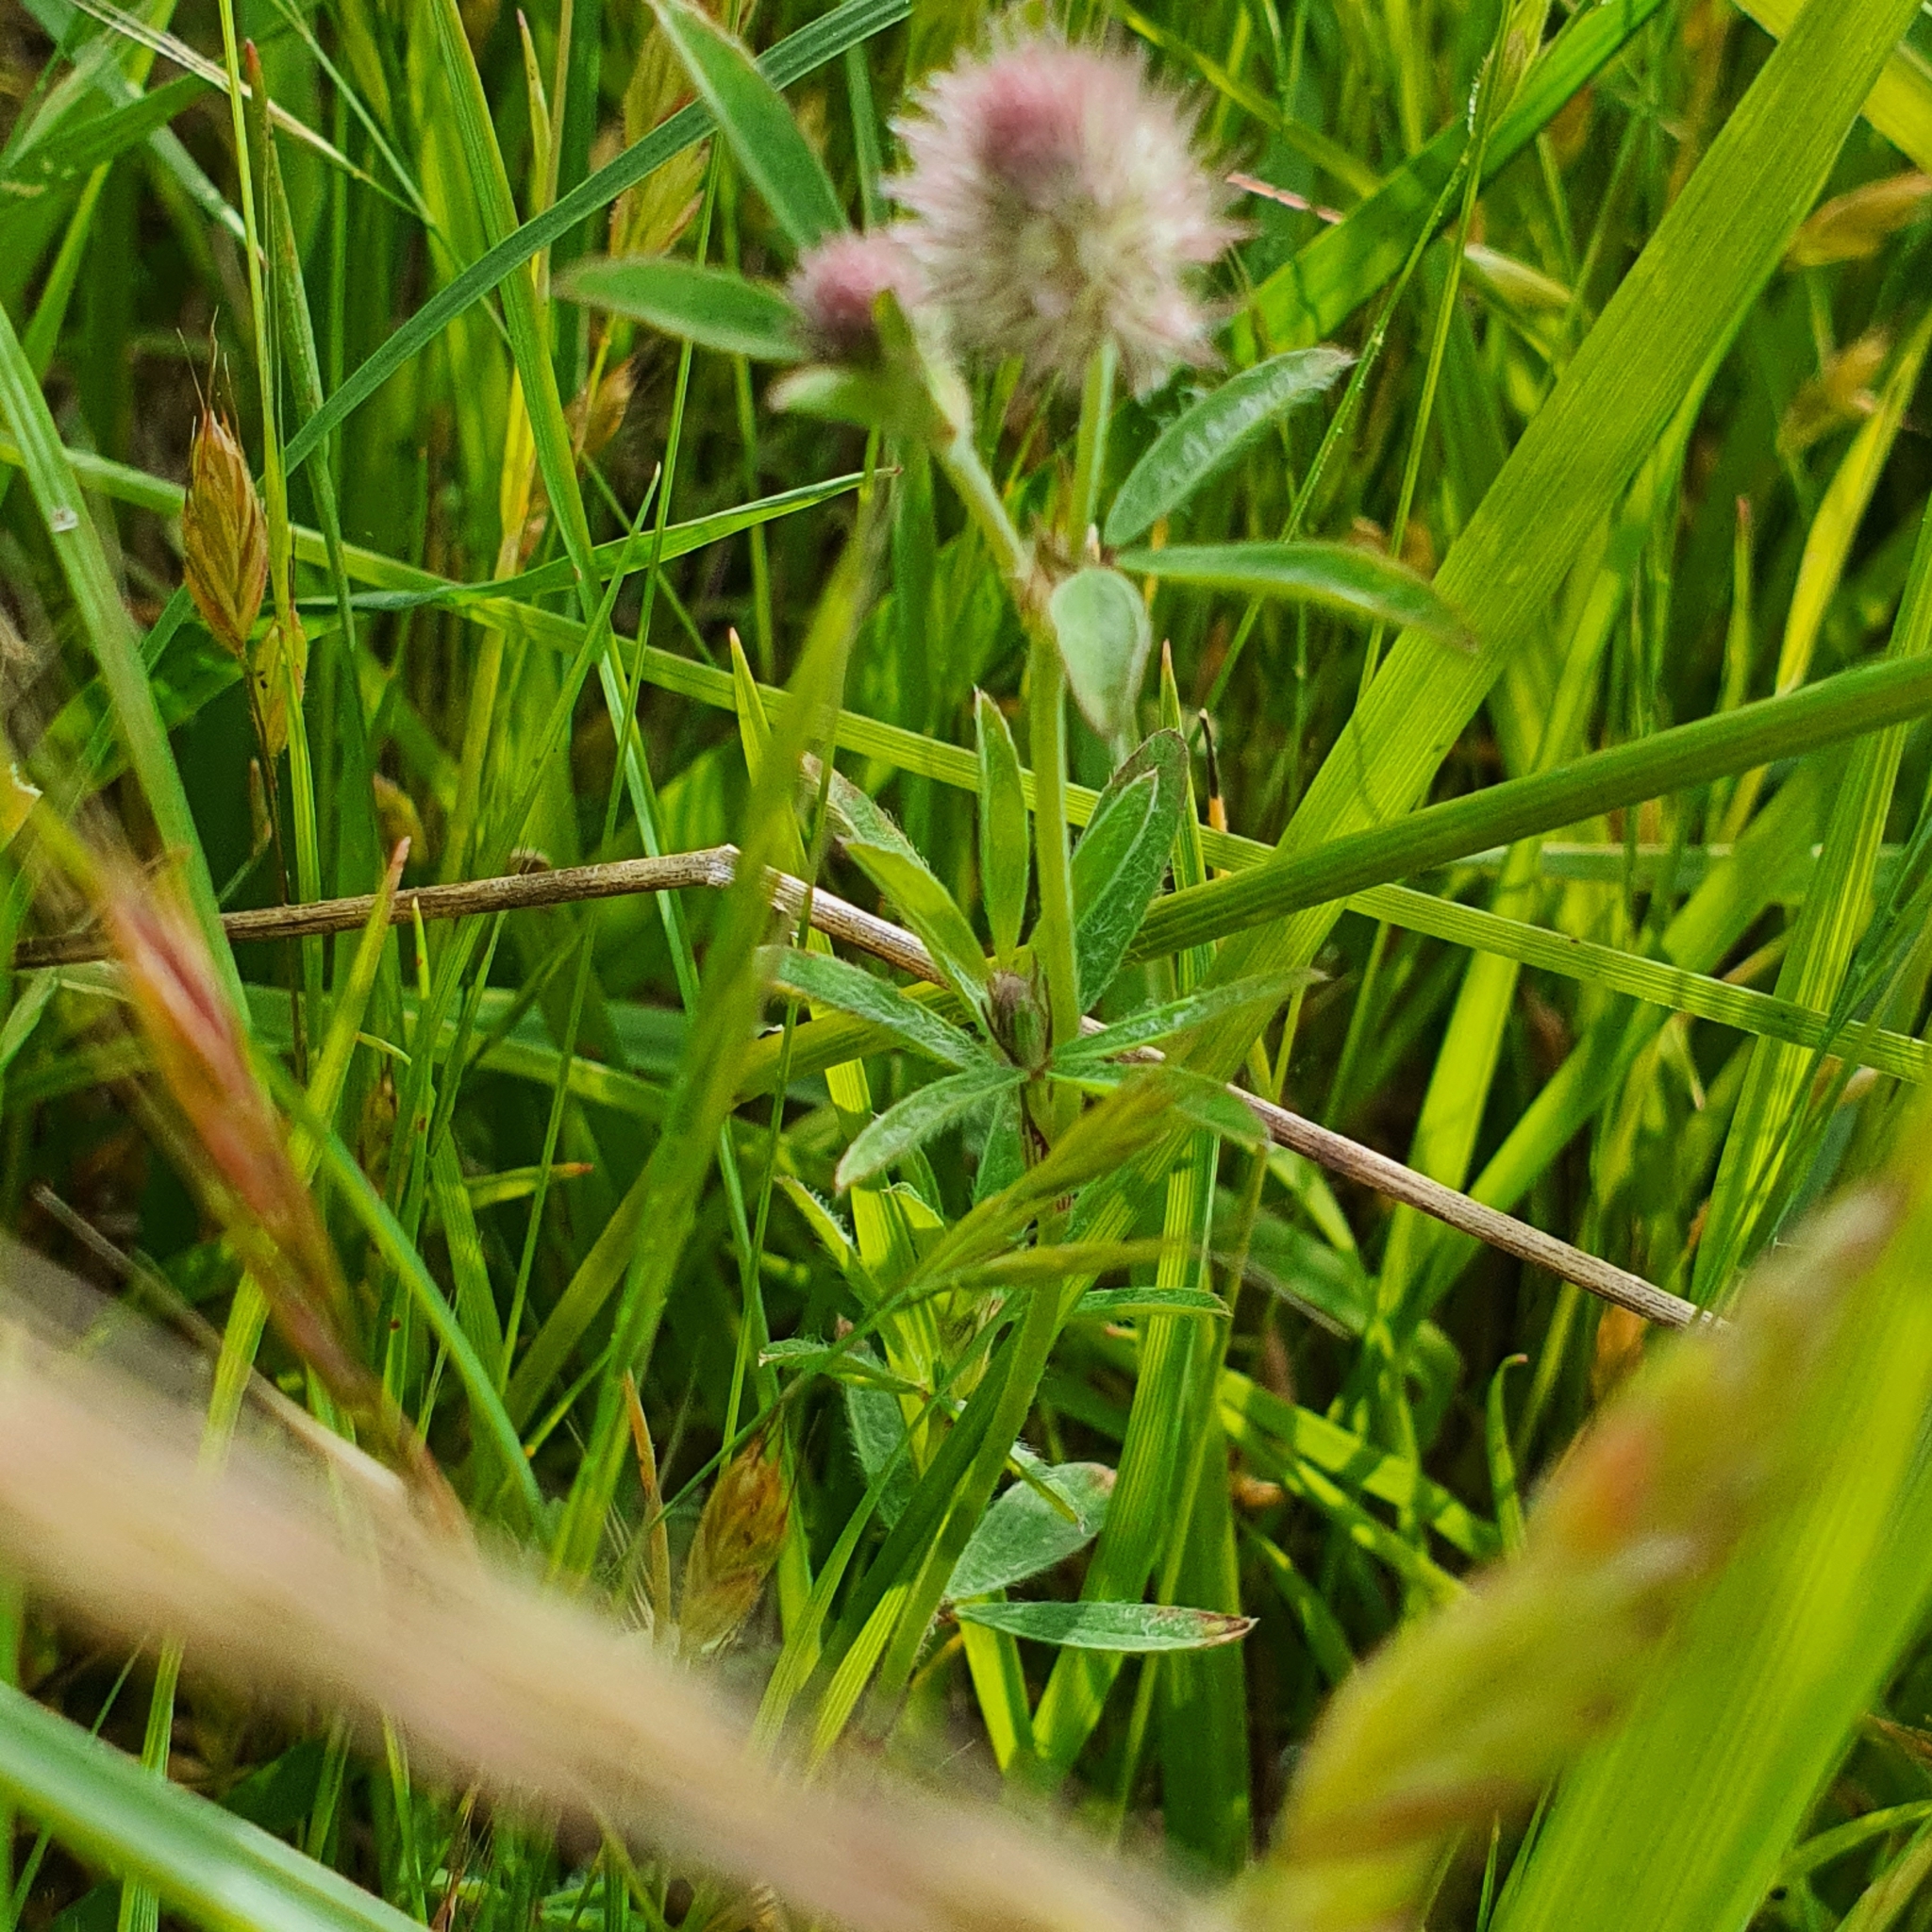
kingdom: Plantae
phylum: Tracheophyta
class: Magnoliopsida
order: Fabales
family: Fabaceae
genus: Trifolium
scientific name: Trifolium arvense
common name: Hare's-foot clover
